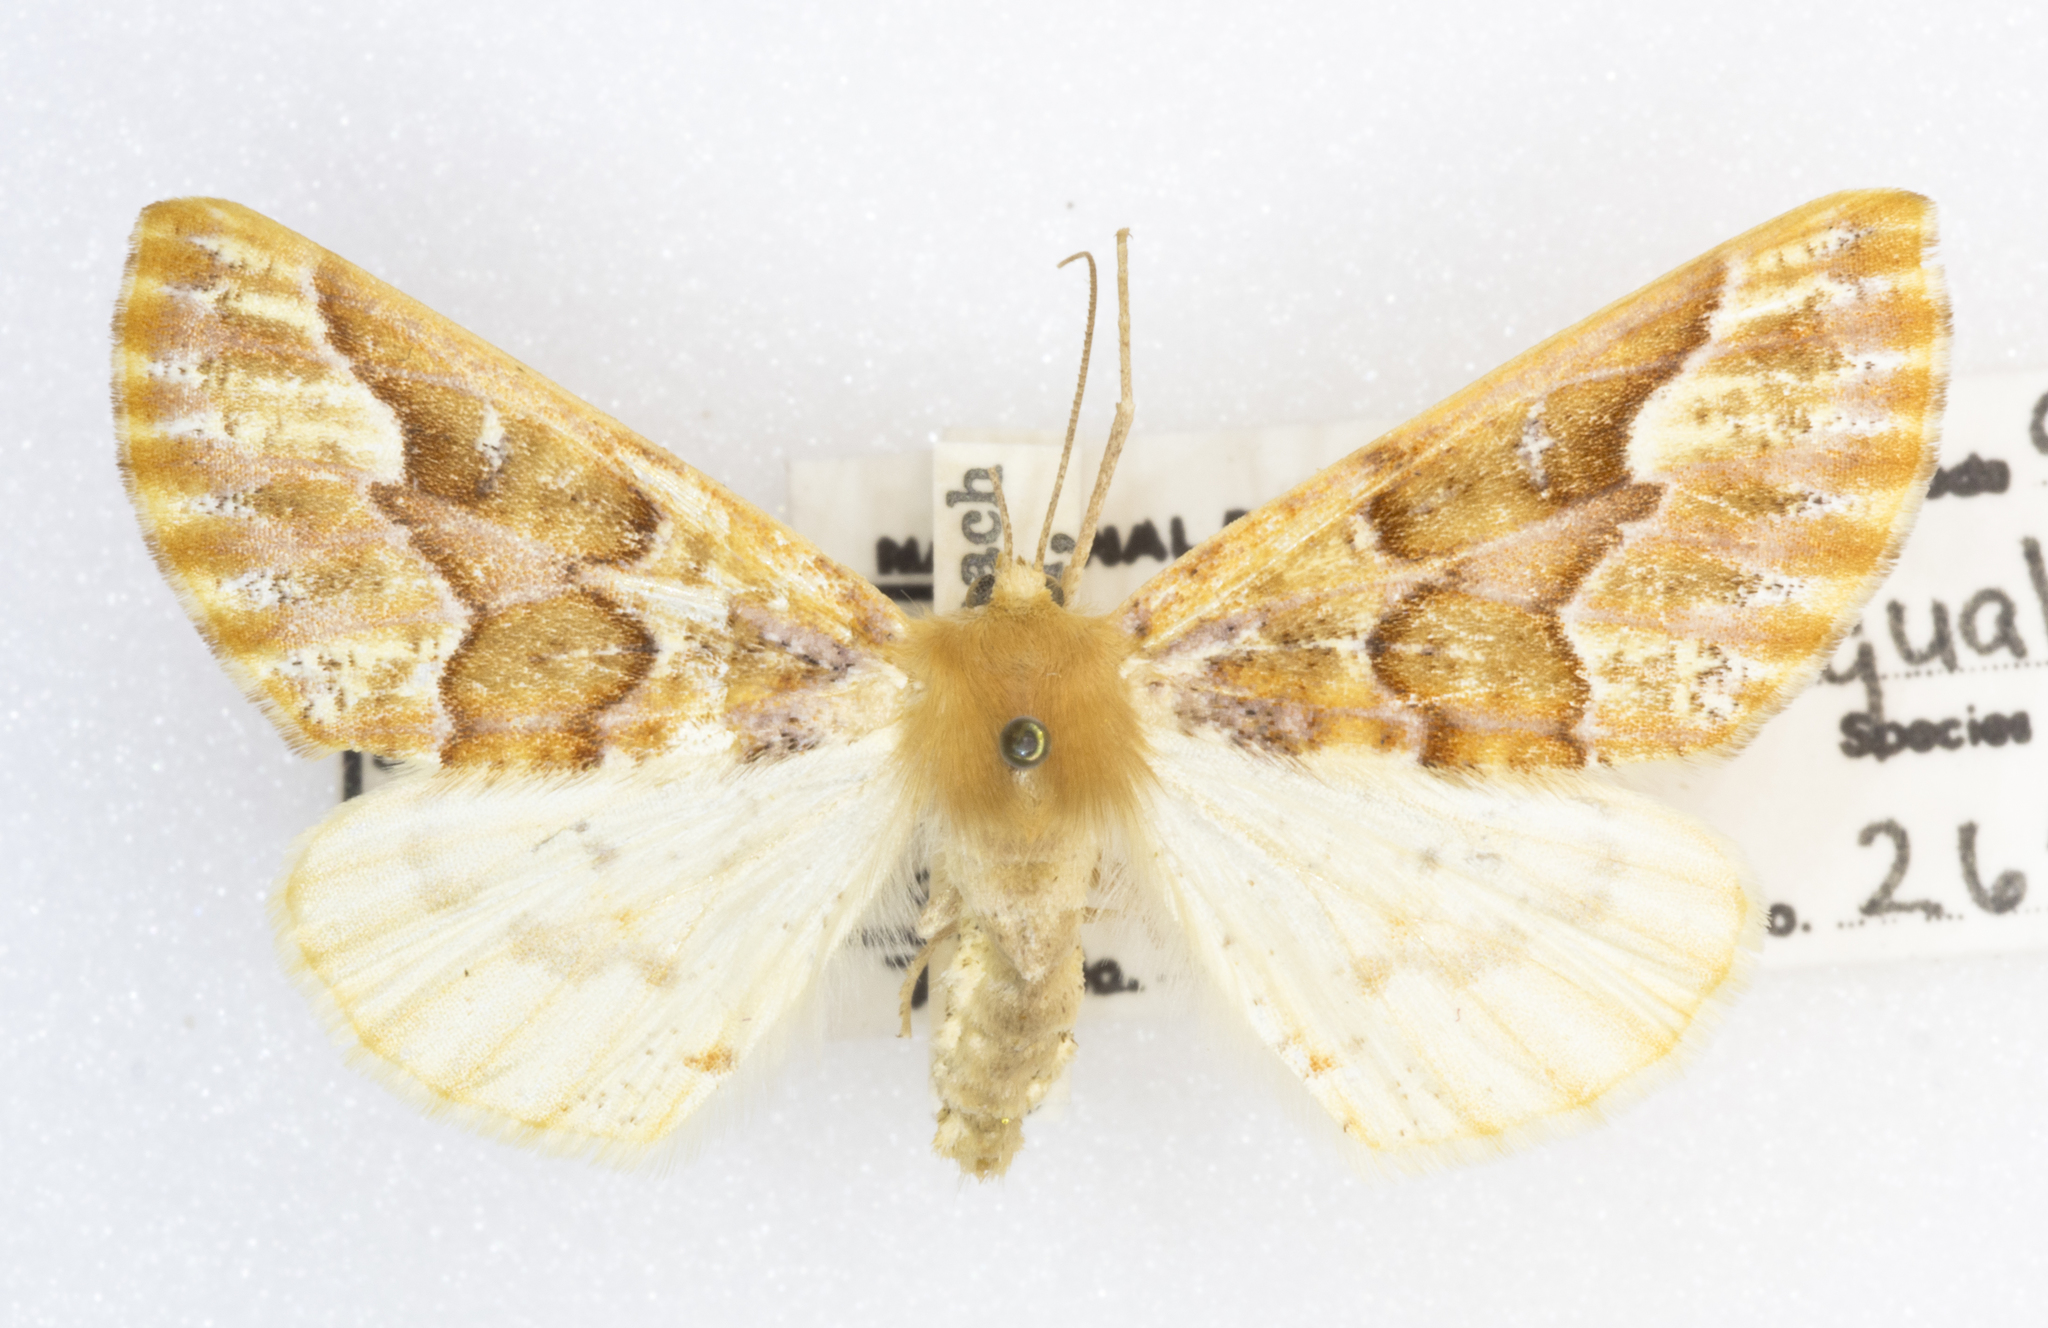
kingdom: Animalia
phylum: Arthropoda
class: Insecta
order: Lepidoptera
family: Geometridae
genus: Caripeta
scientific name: Caripeta aequaliaria
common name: Red girdle moth
